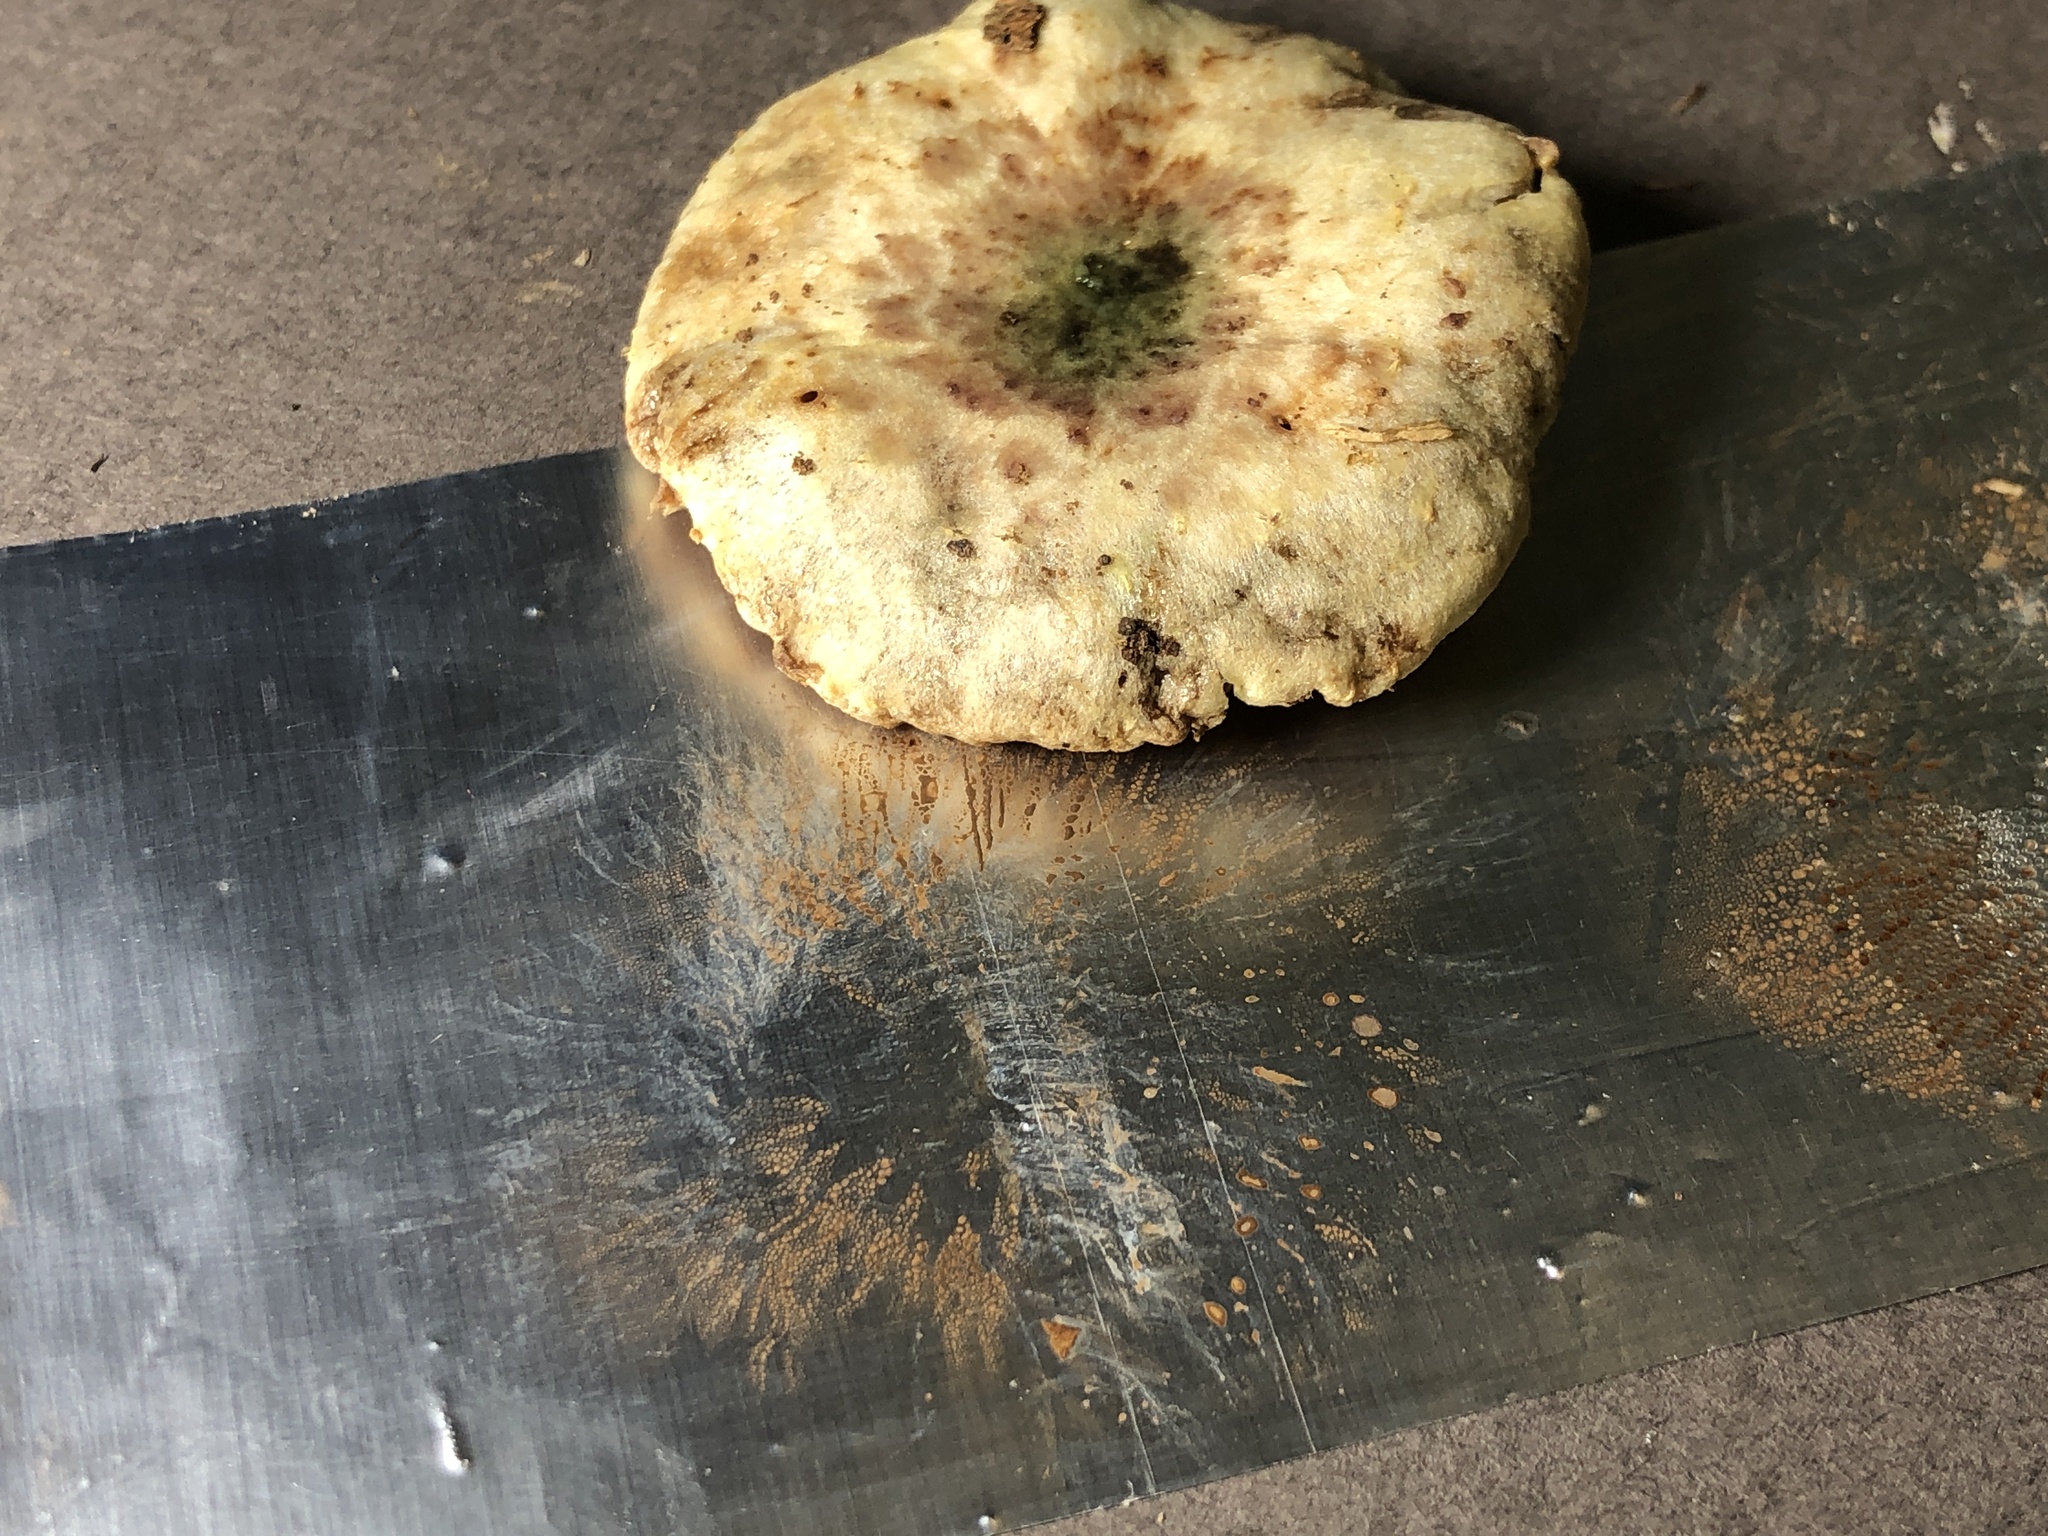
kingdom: Fungi
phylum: Basidiomycota
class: Agaricomycetes
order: Agaricales
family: Strophariaceae
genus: Pholiota
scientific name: Pholiota polychroa
